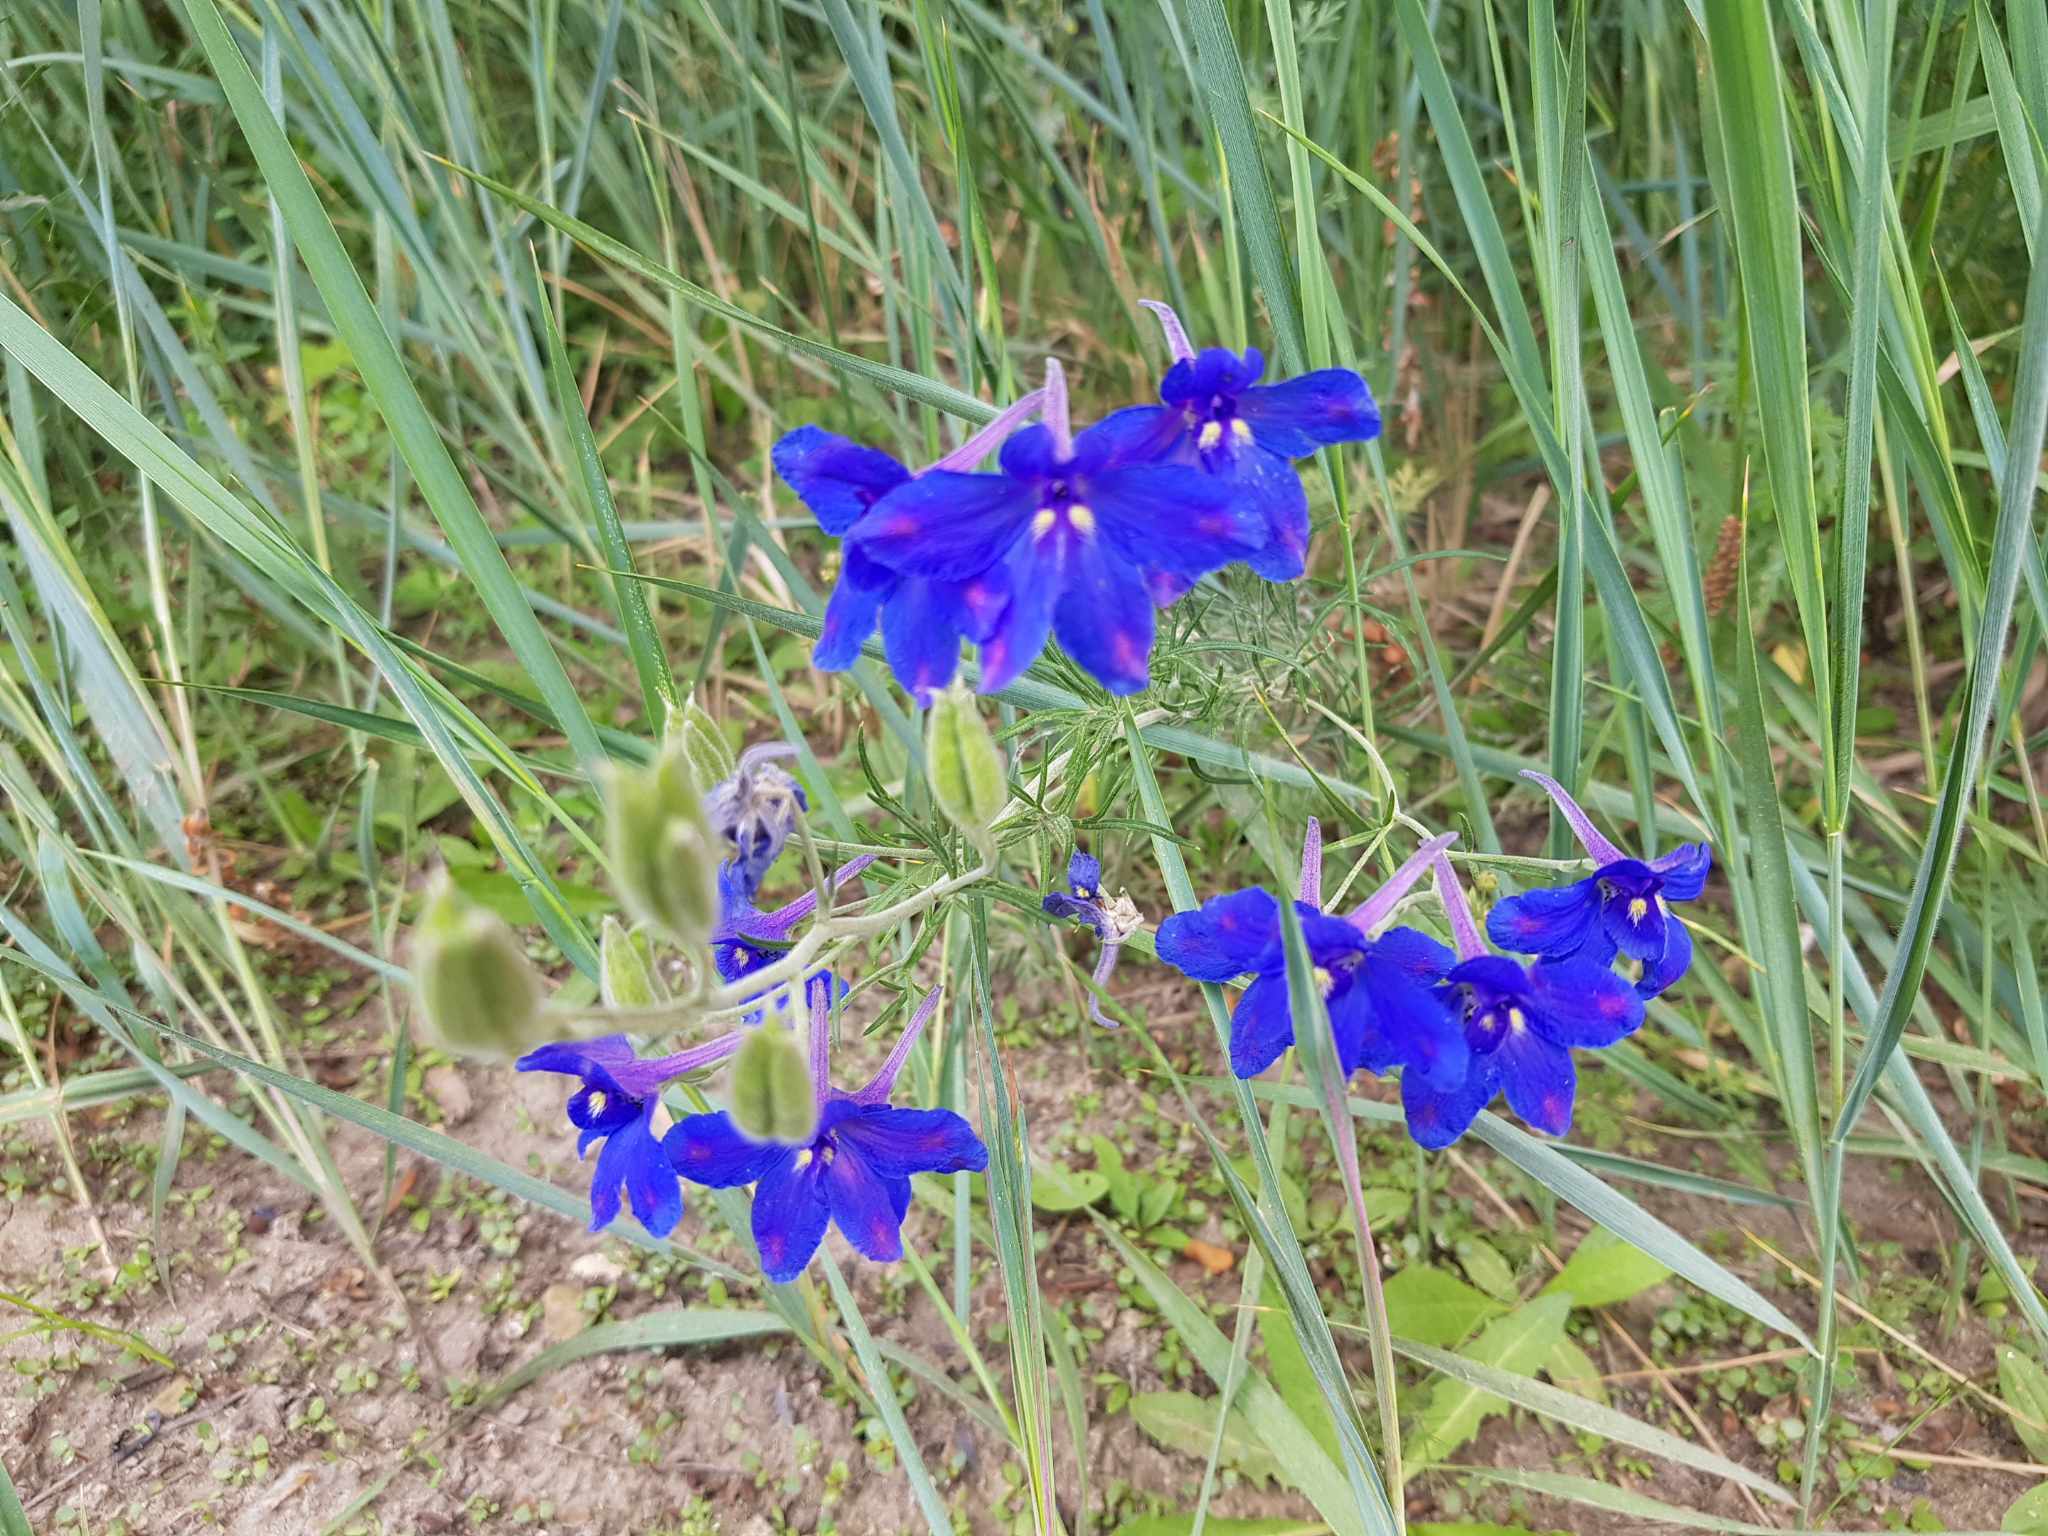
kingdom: Plantae
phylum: Tracheophyta
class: Magnoliopsida
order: Ranunculales
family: Ranunculaceae
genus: Delphinium
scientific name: Delphinium grandiflorum
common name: Siberian larkspur
